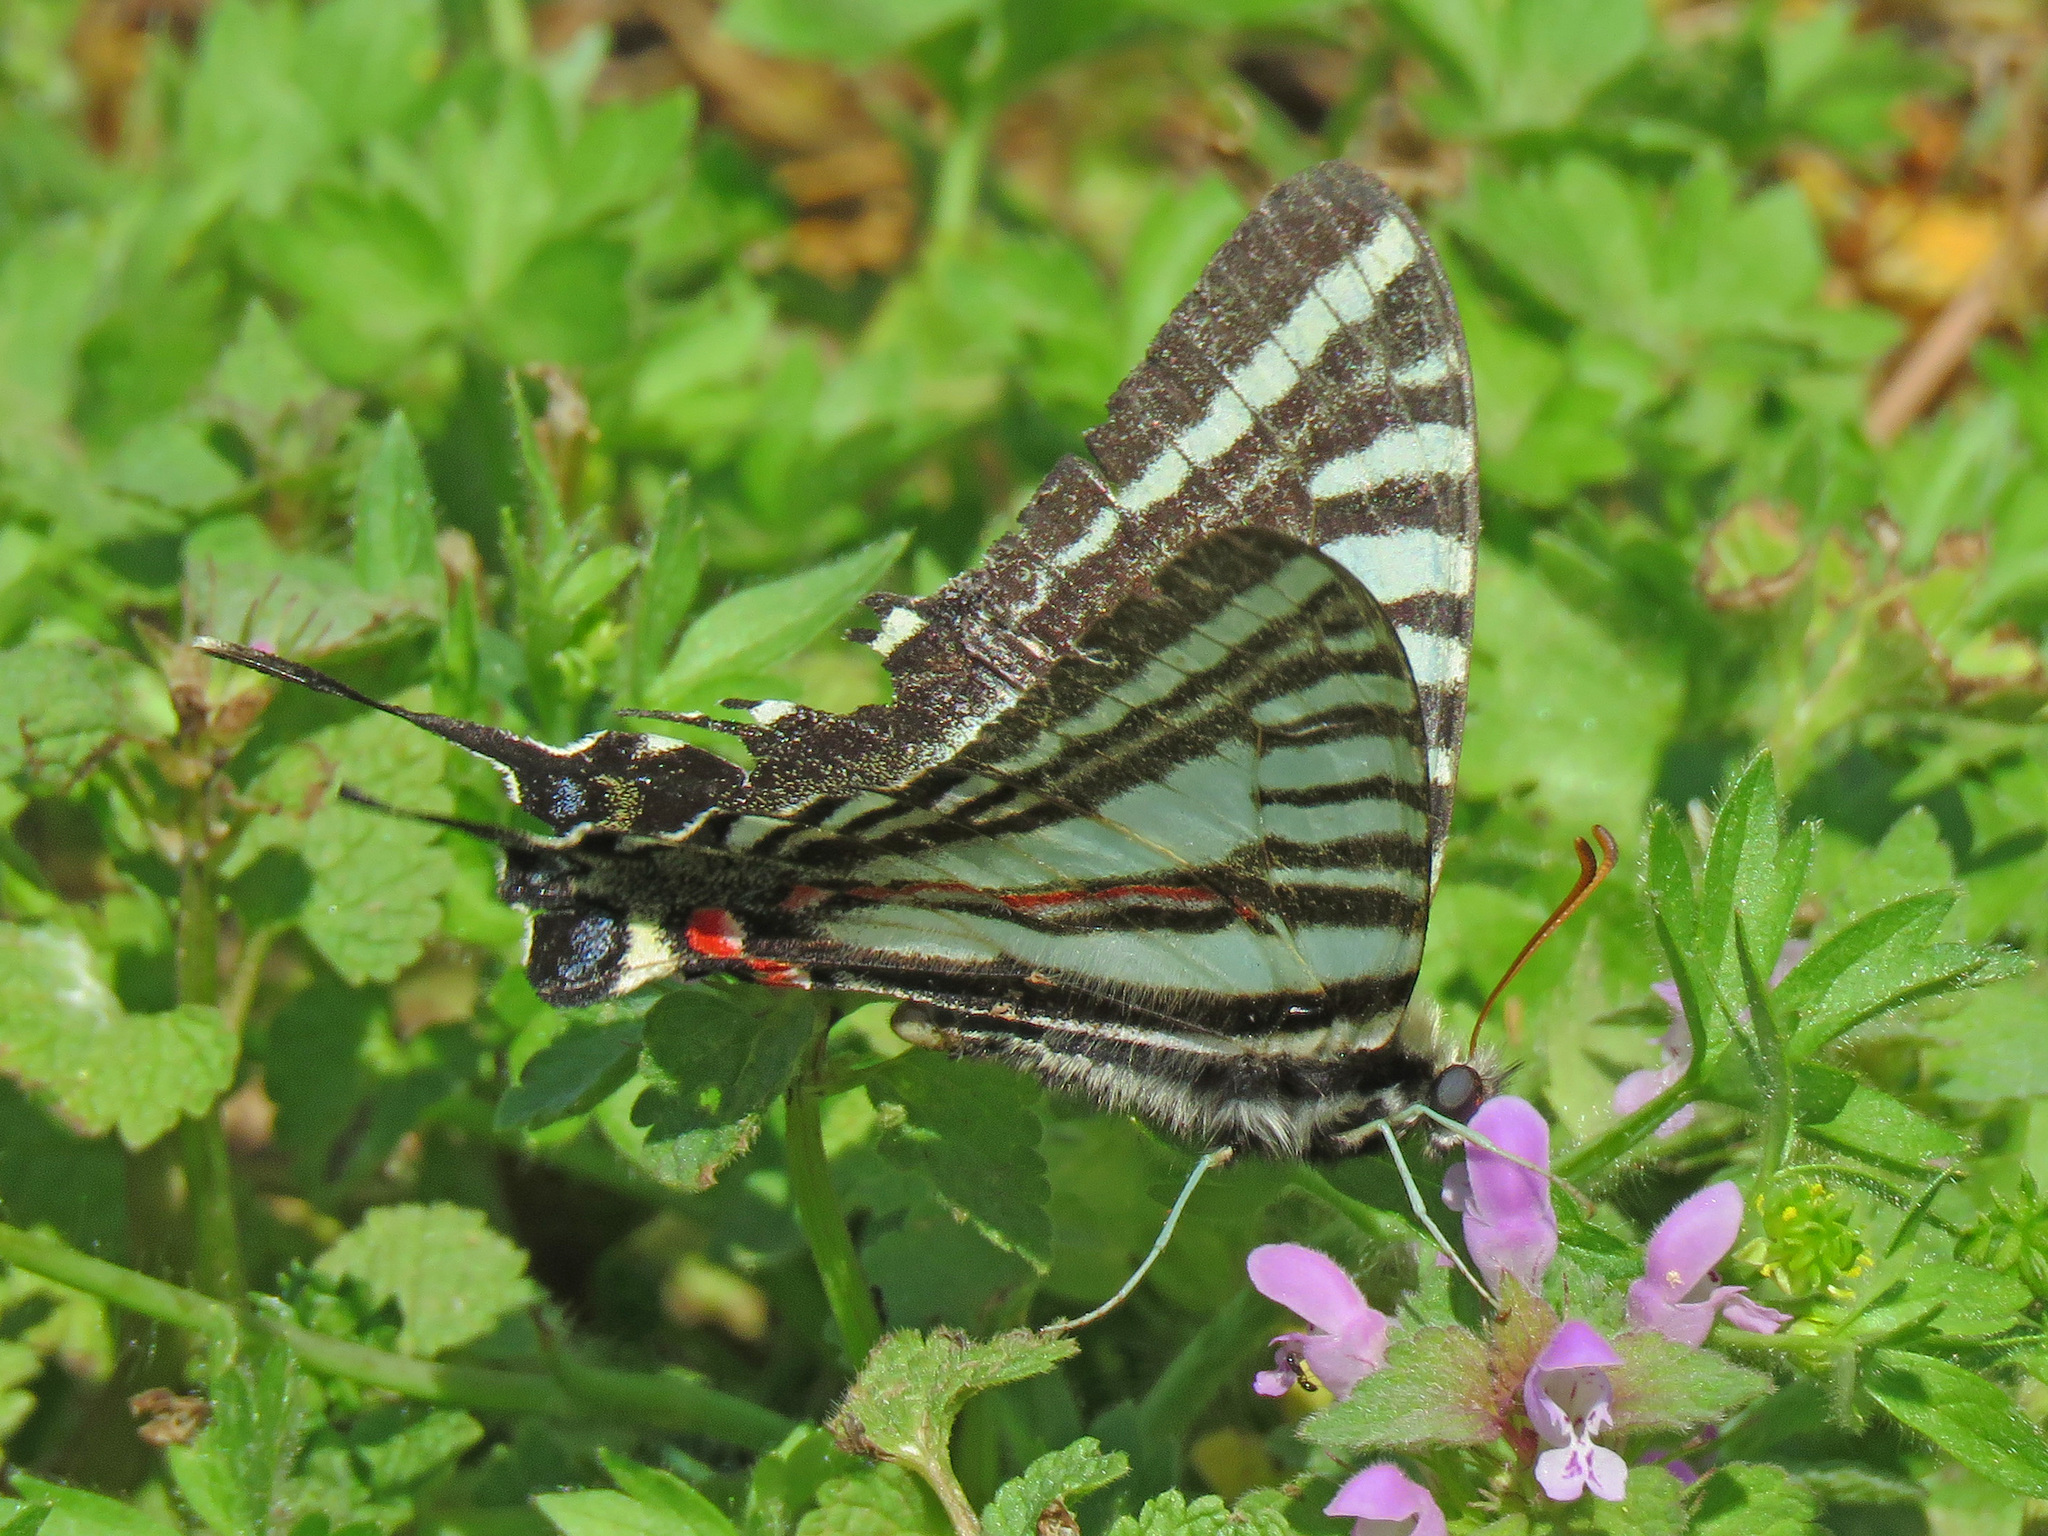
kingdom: Animalia
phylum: Arthropoda
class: Insecta
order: Lepidoptera
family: Papilionidae
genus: Protographium
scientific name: Protographium marcellus
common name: Zebra swallowtail
